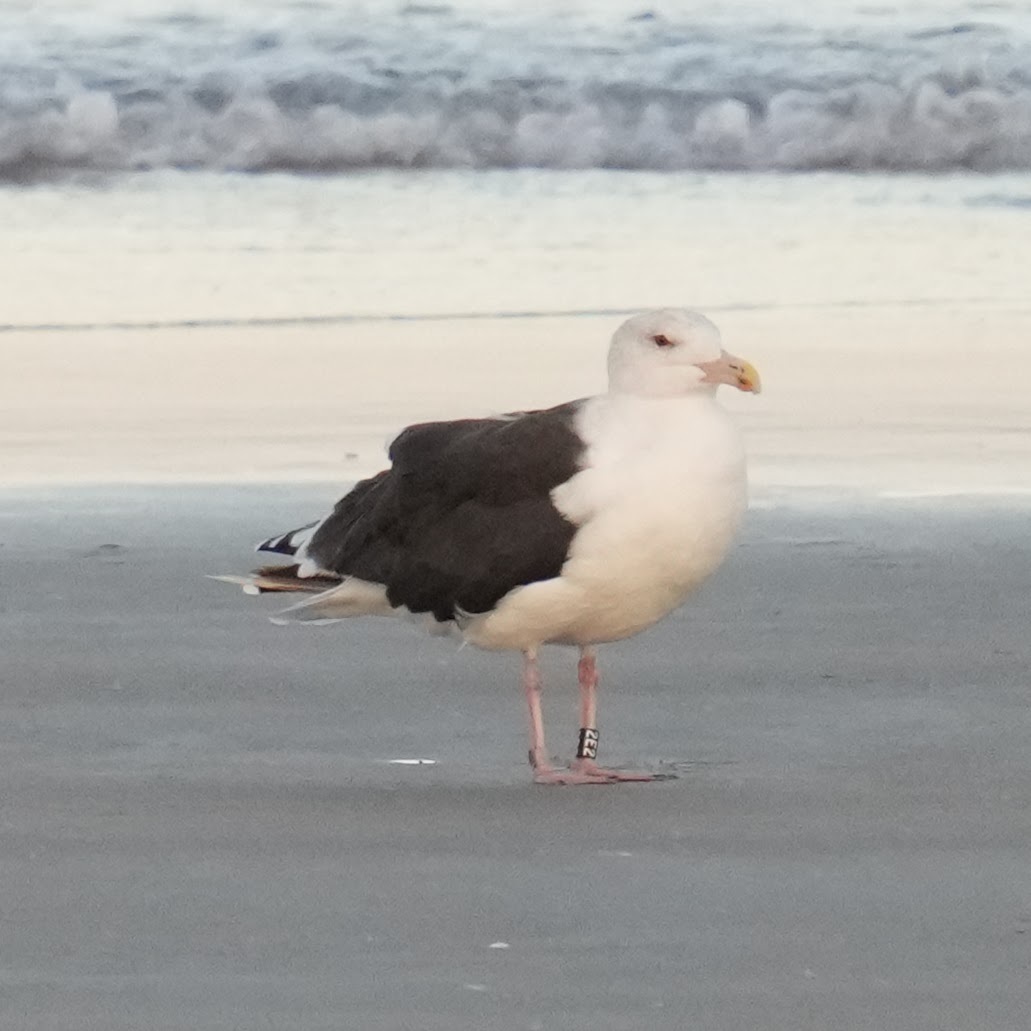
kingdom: Animalia
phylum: Chordata
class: Aves
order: Charadriiformes
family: Laridae
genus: Larus
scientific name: Larus marinus
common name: Great black-backed gull
